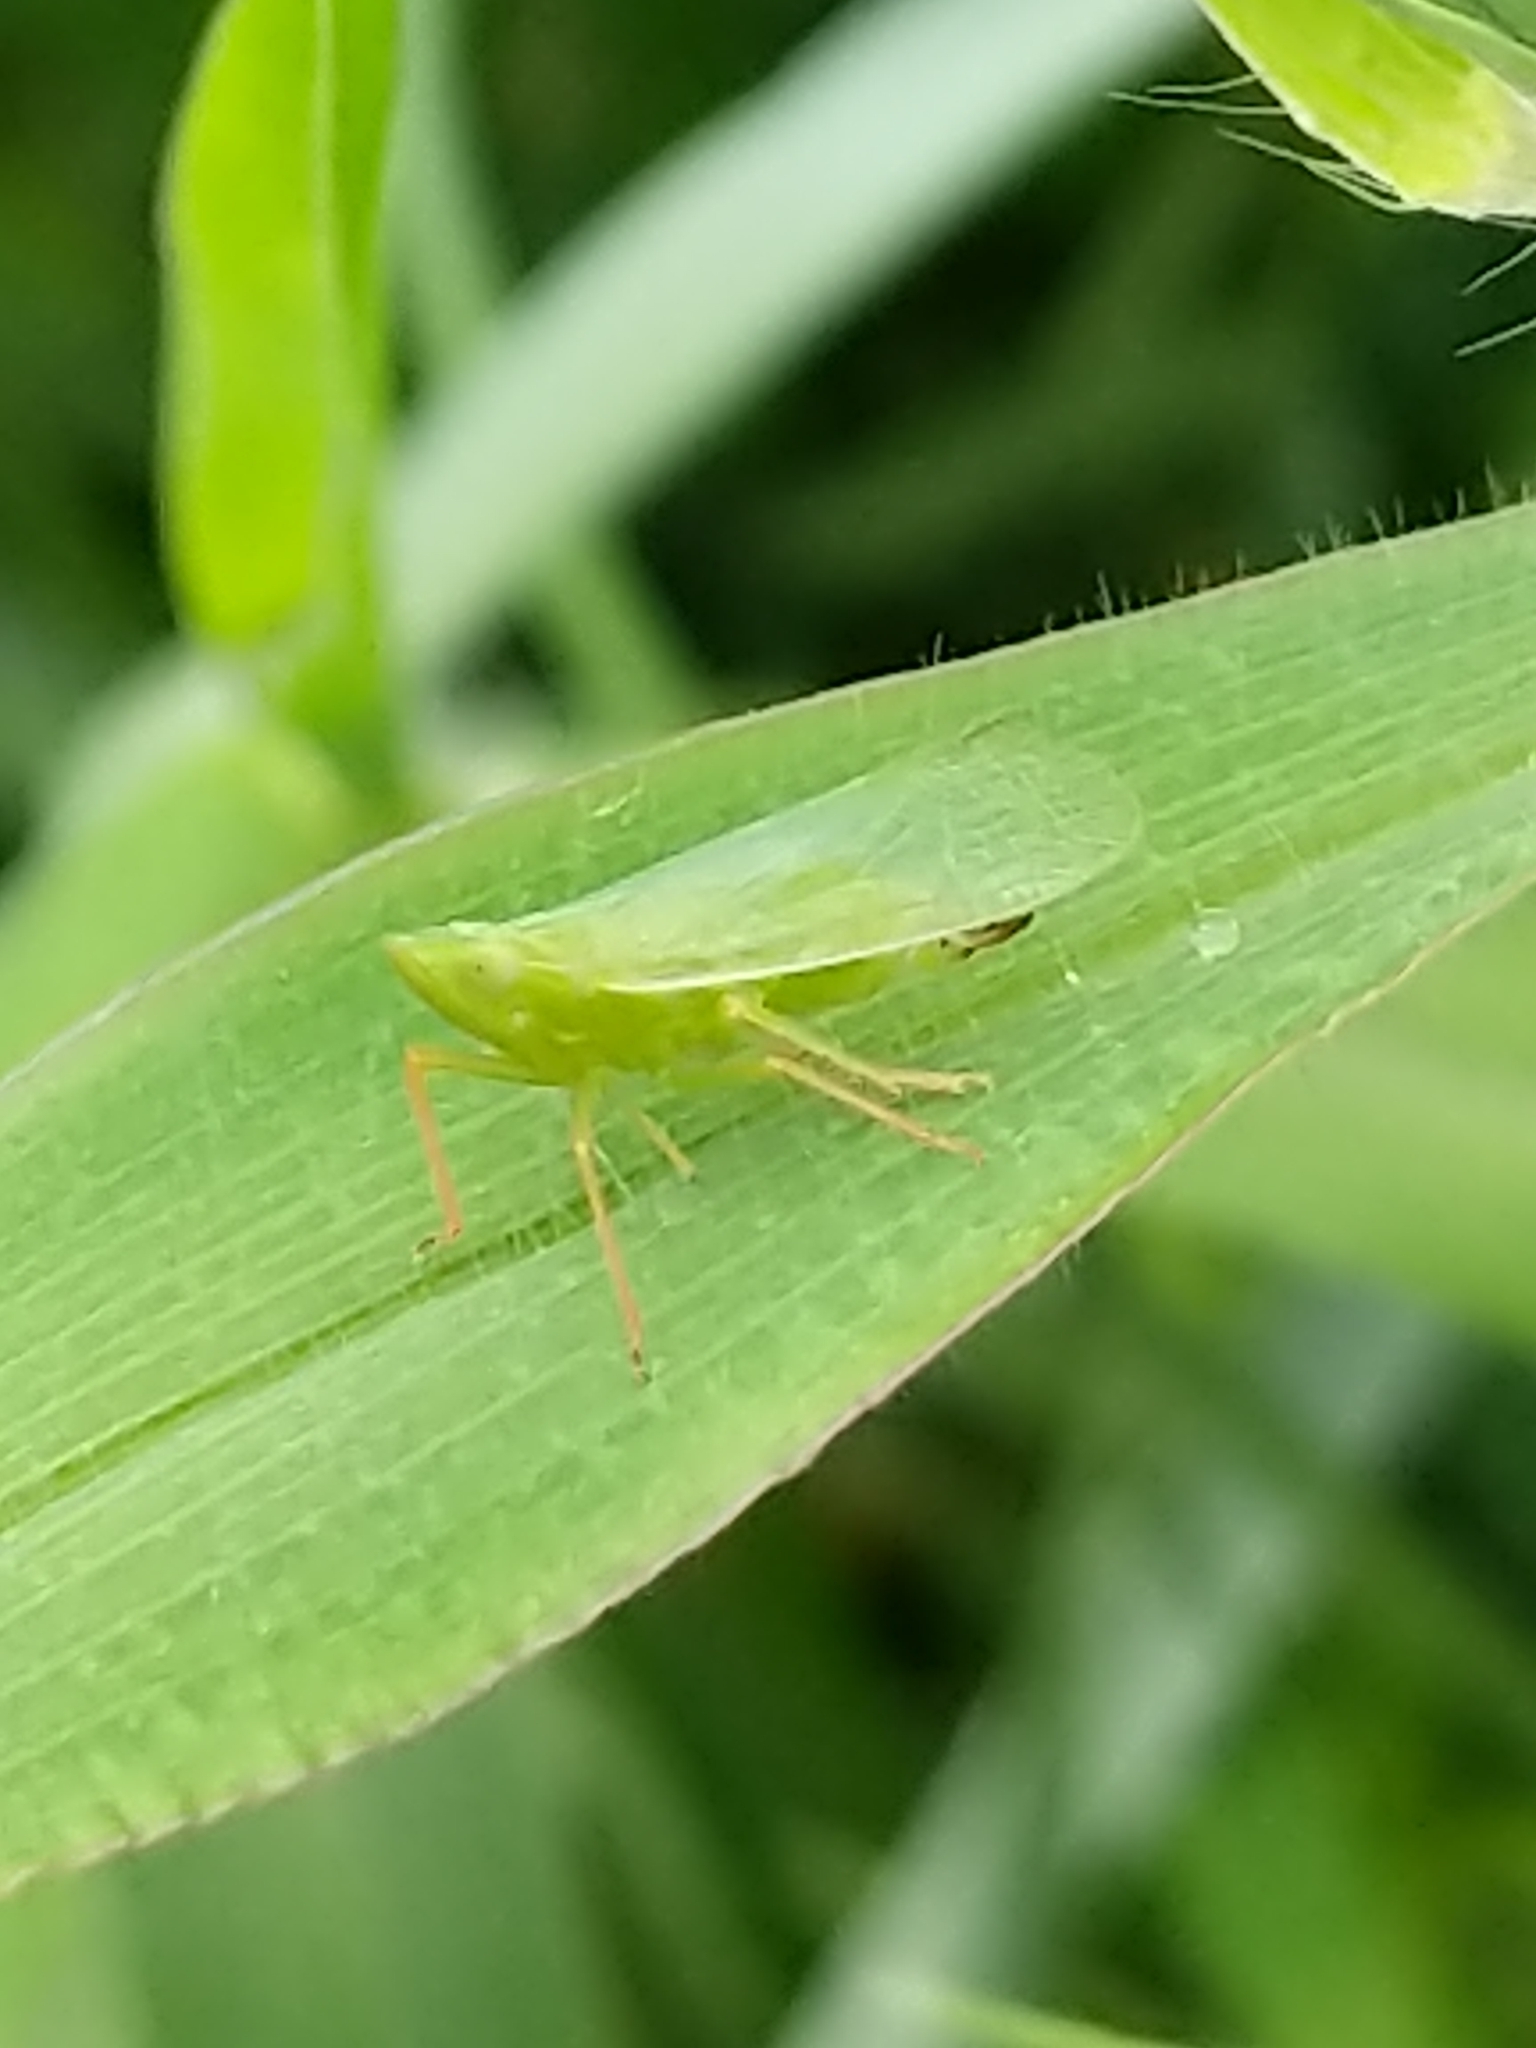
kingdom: Animalia
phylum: Arthropoda
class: Insecta
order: Hemiptera
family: Dictyopharidae
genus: Rhynchomitra
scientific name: Rhynchomitra lingula
